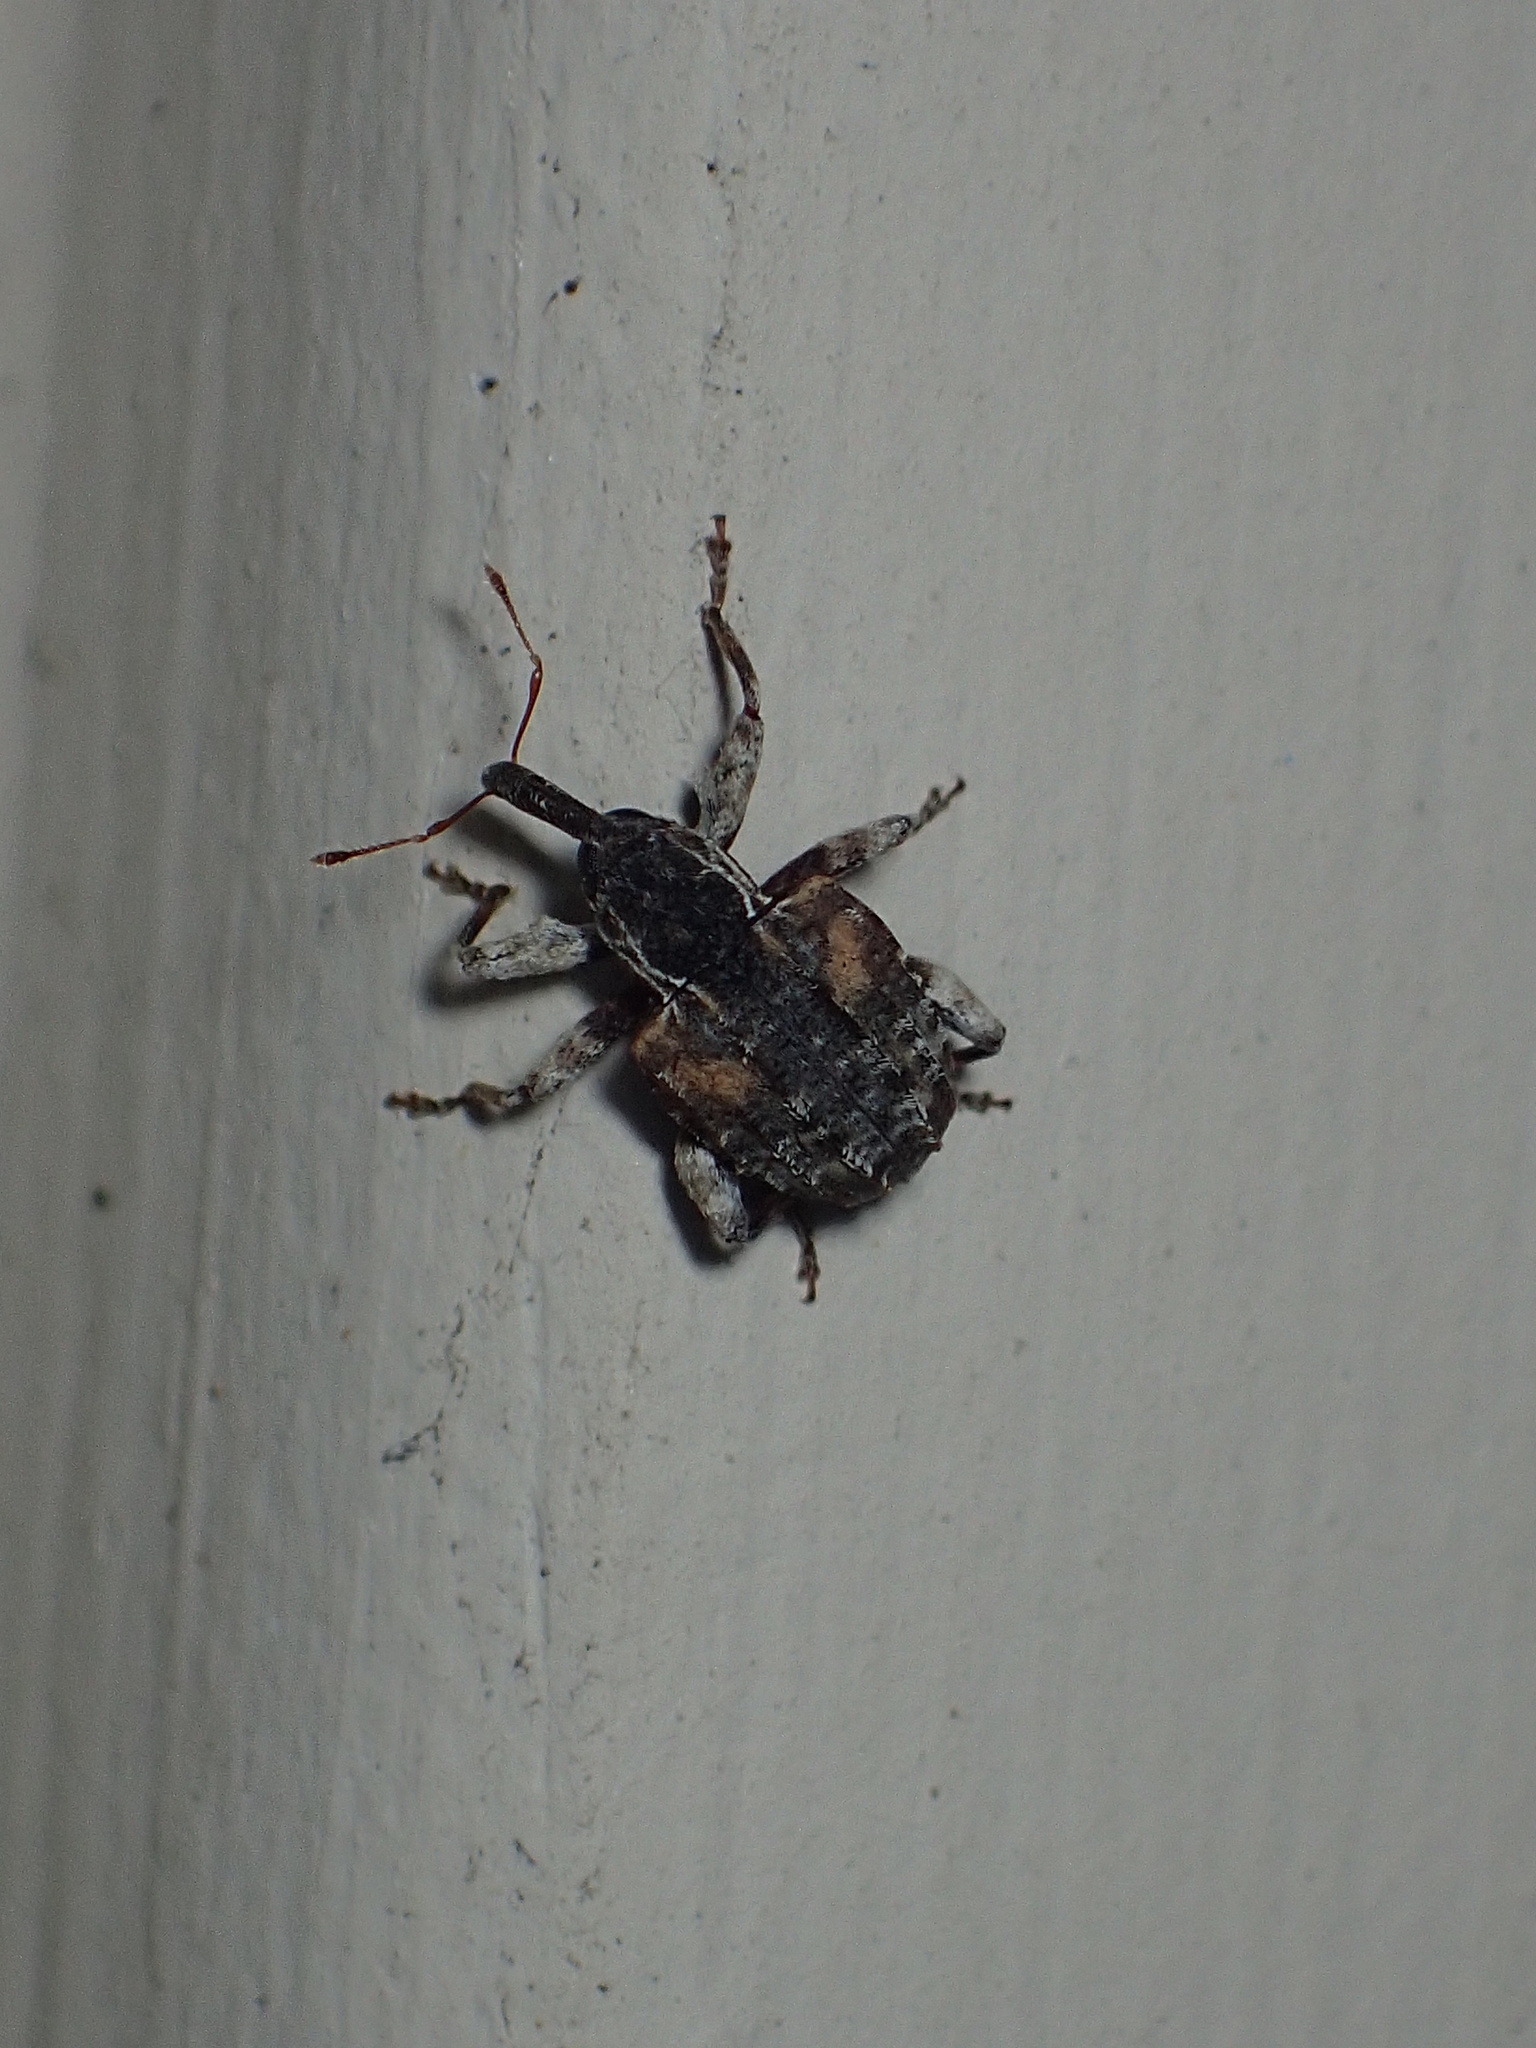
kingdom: Animalia
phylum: Arthropoda
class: Insecta
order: Coleoptera
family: Curculionidae
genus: Conotrachelus
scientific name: Conotrachelus anaglypticus
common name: Cambium curculio
